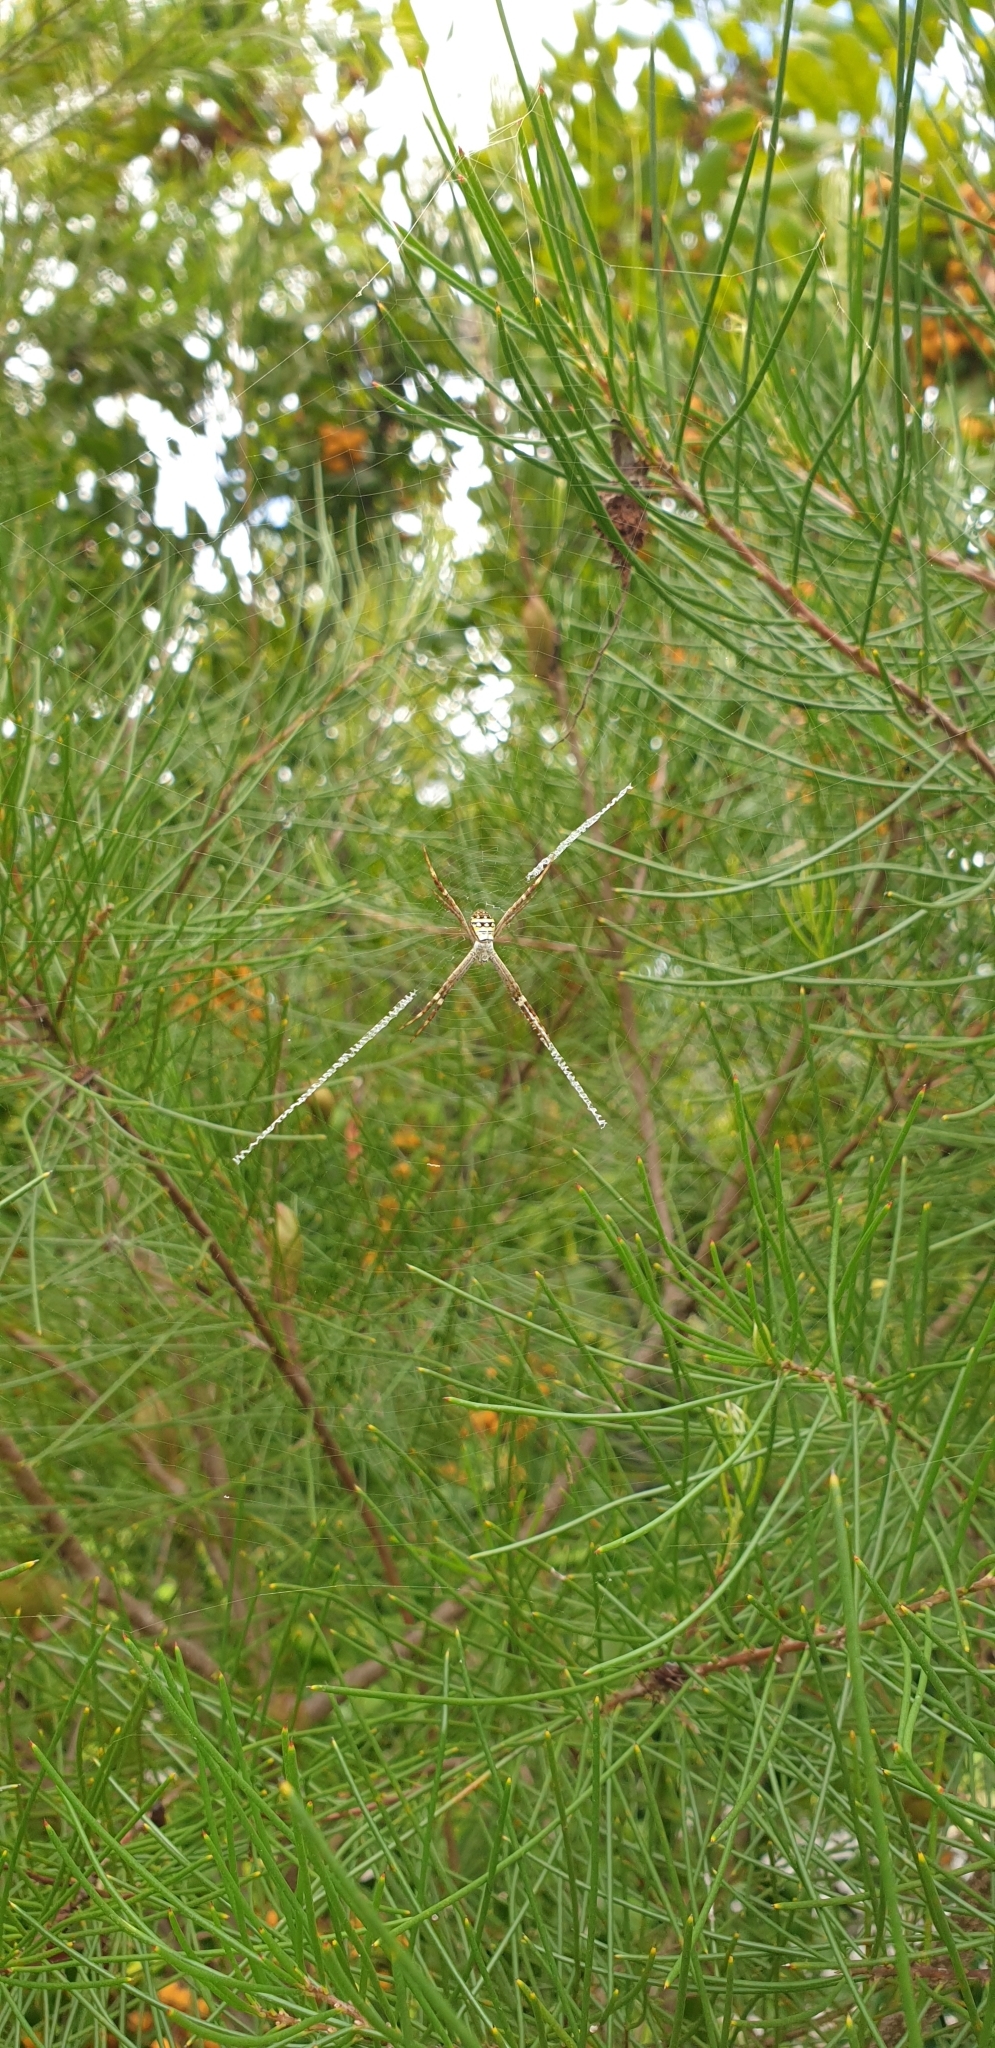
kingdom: Animalia
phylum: Arthropoda
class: Arachnida
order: Araneae
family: Araneidae
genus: Argiope
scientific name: Argiope keyserlingi
